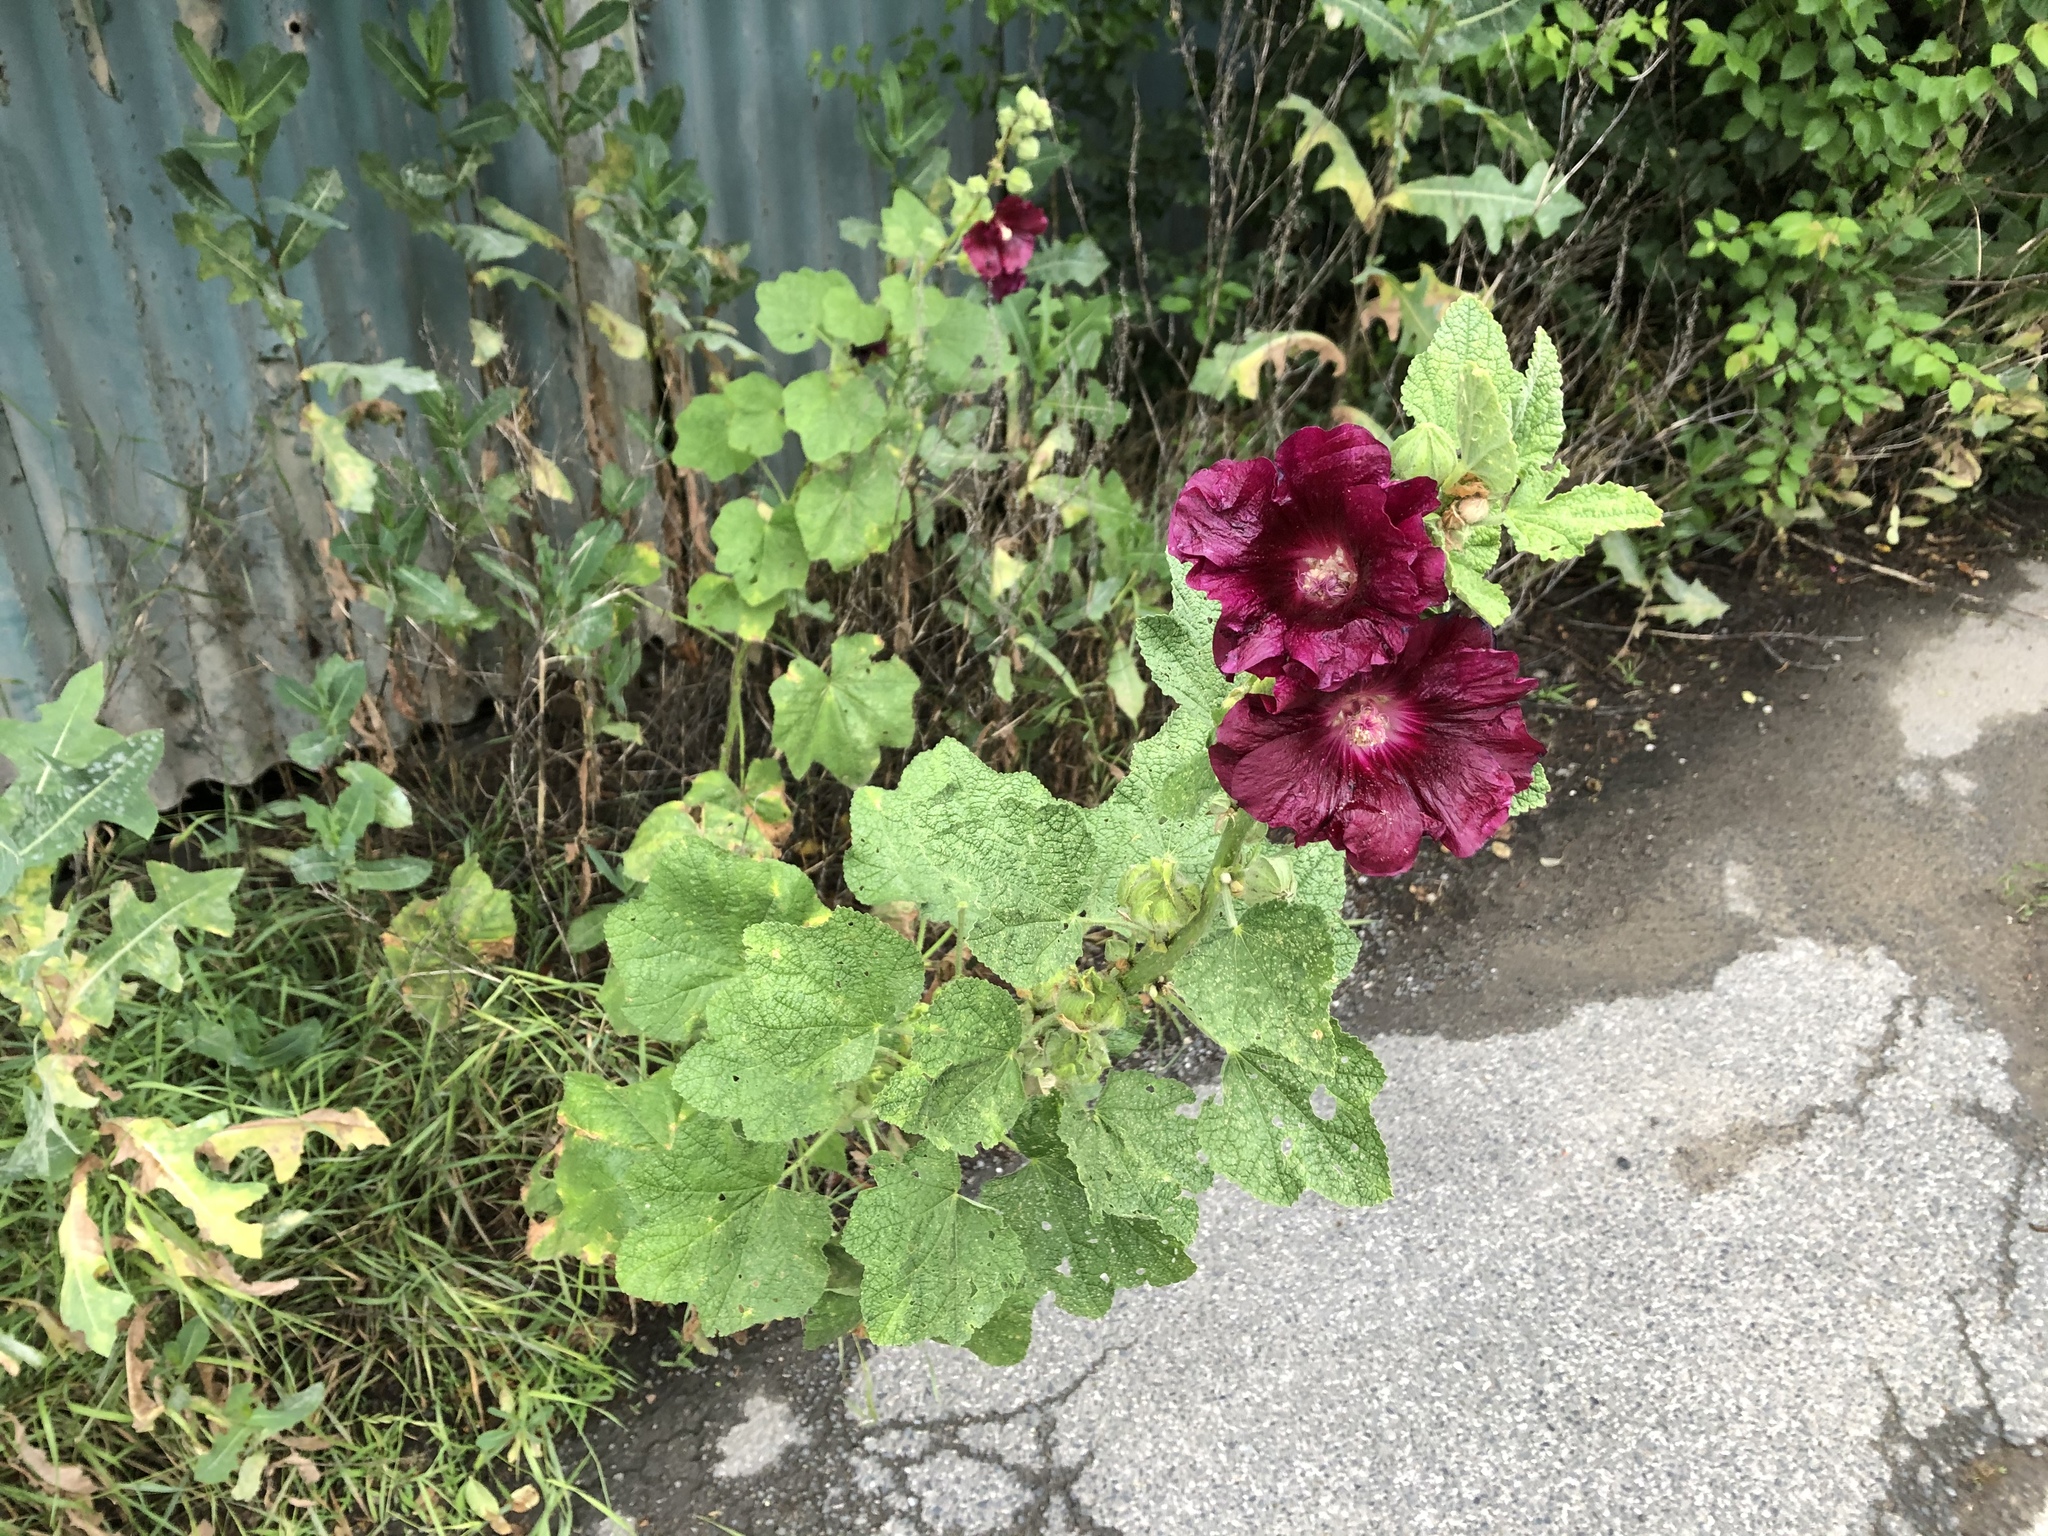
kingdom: Plantae
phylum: Tracheophyta
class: Magnoliopsida
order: Malvales
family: Malvaceae
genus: Alcea
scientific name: Alcea rosea
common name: Hollyhock
